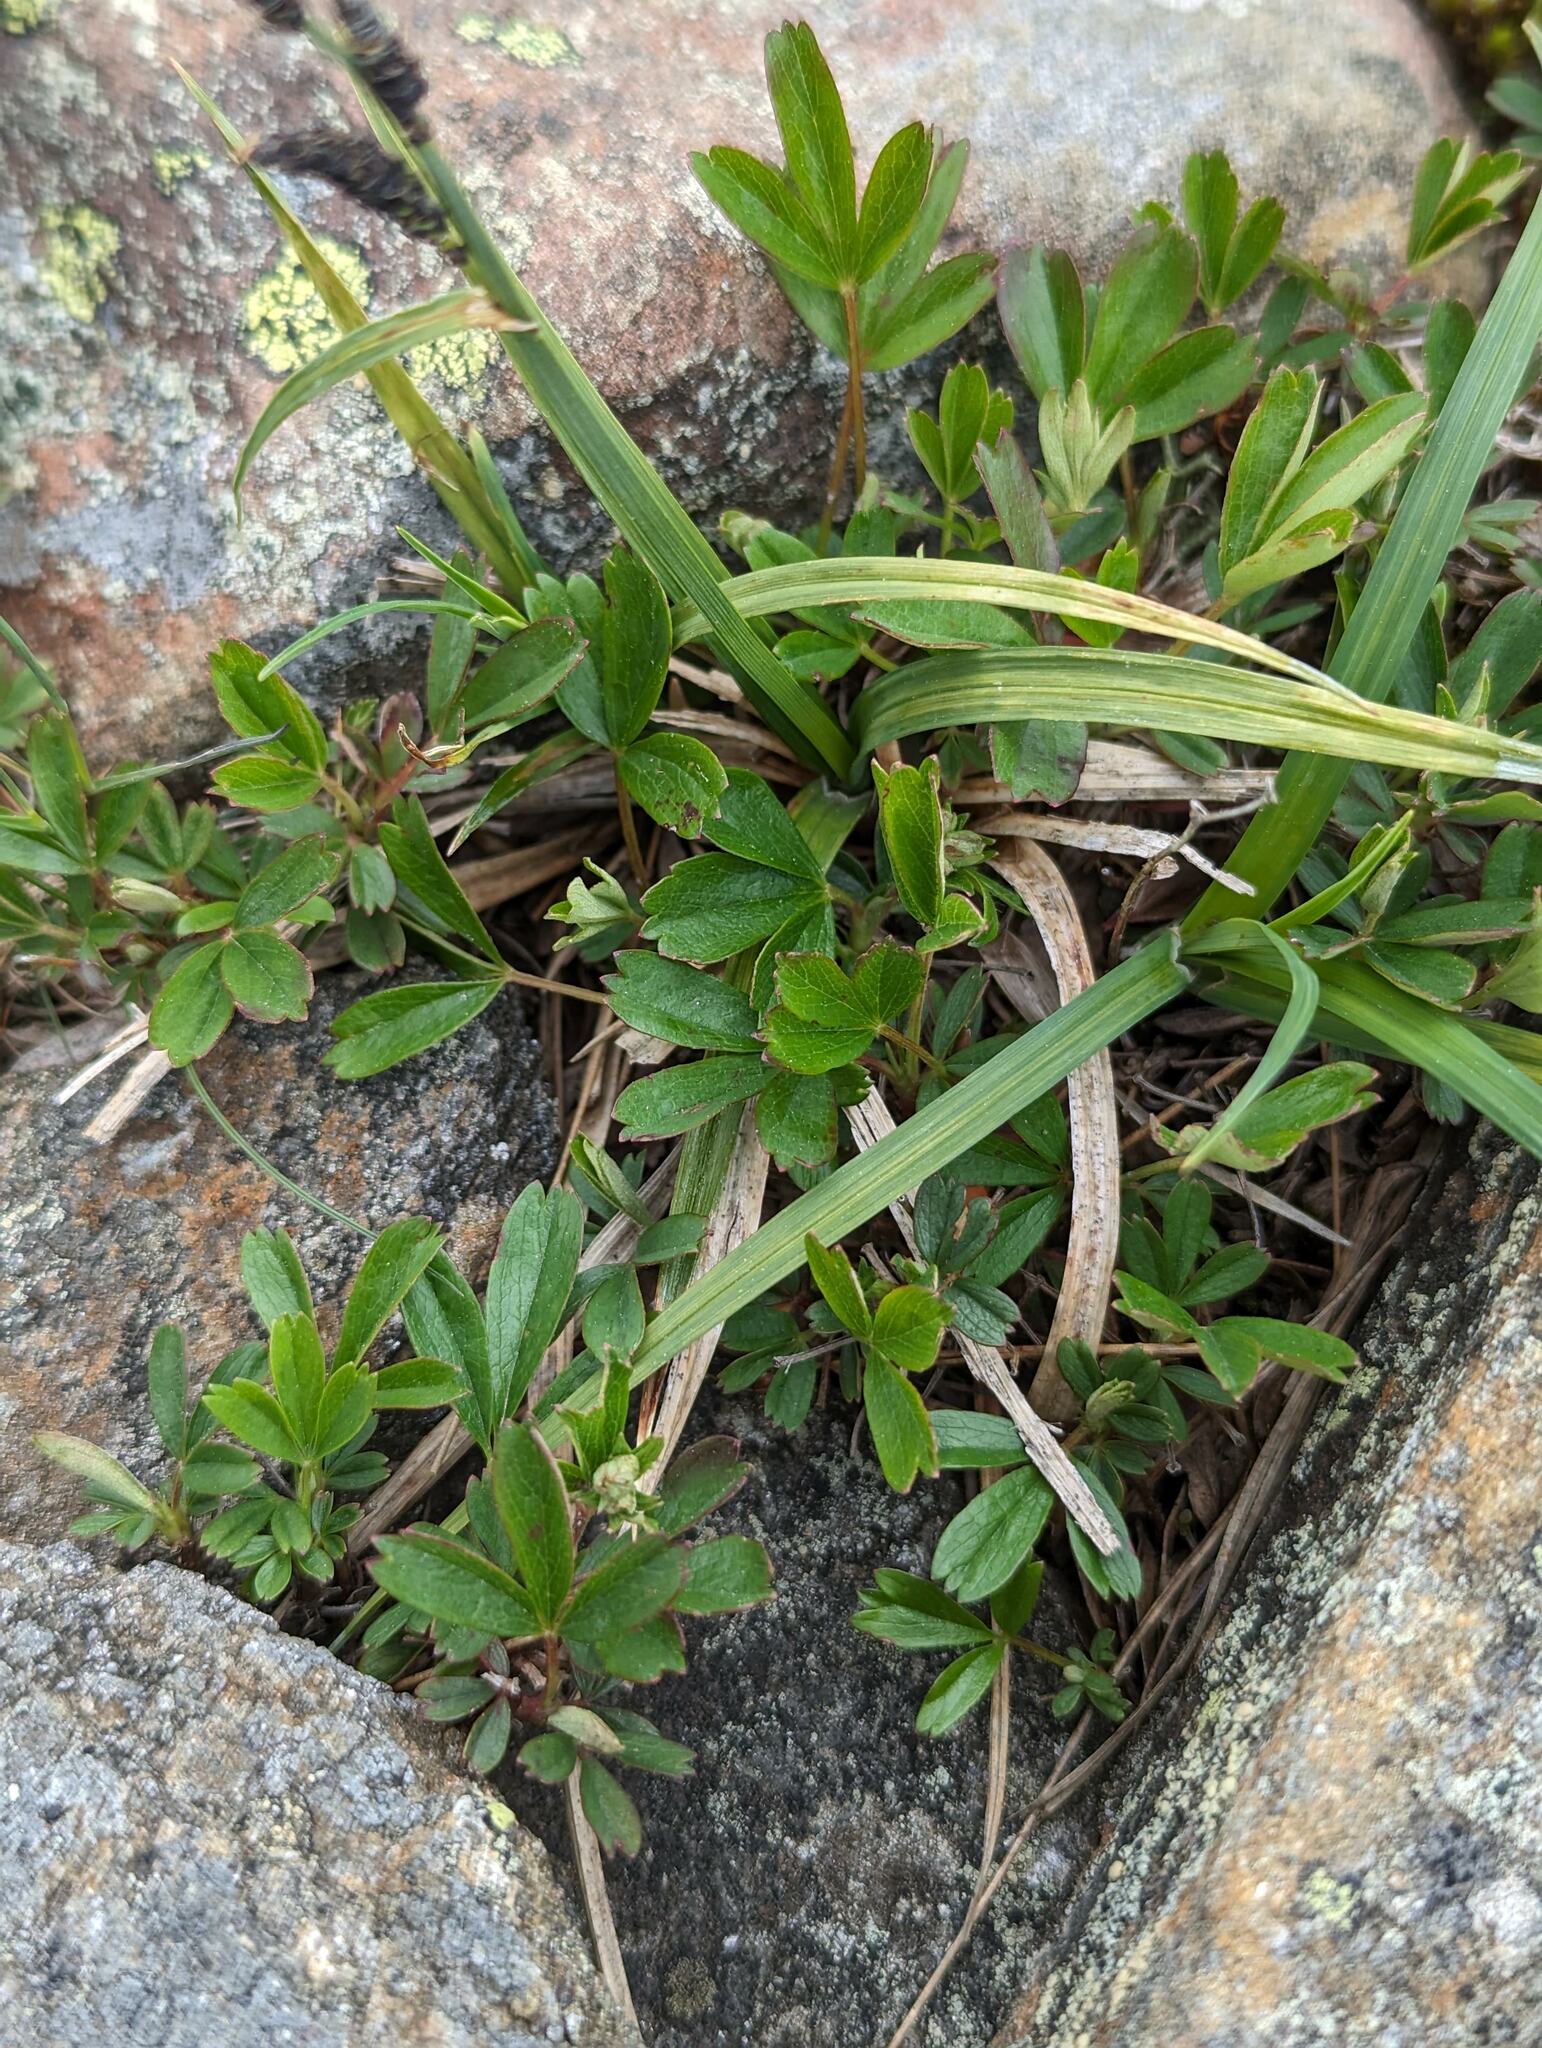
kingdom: Plantae
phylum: Tracheophyta
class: Magnoliopsida
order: Rosales
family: Rosaceae
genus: Sibbaldia
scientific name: Sibbaldia tridentata
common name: Three-toothed cinquefoil
